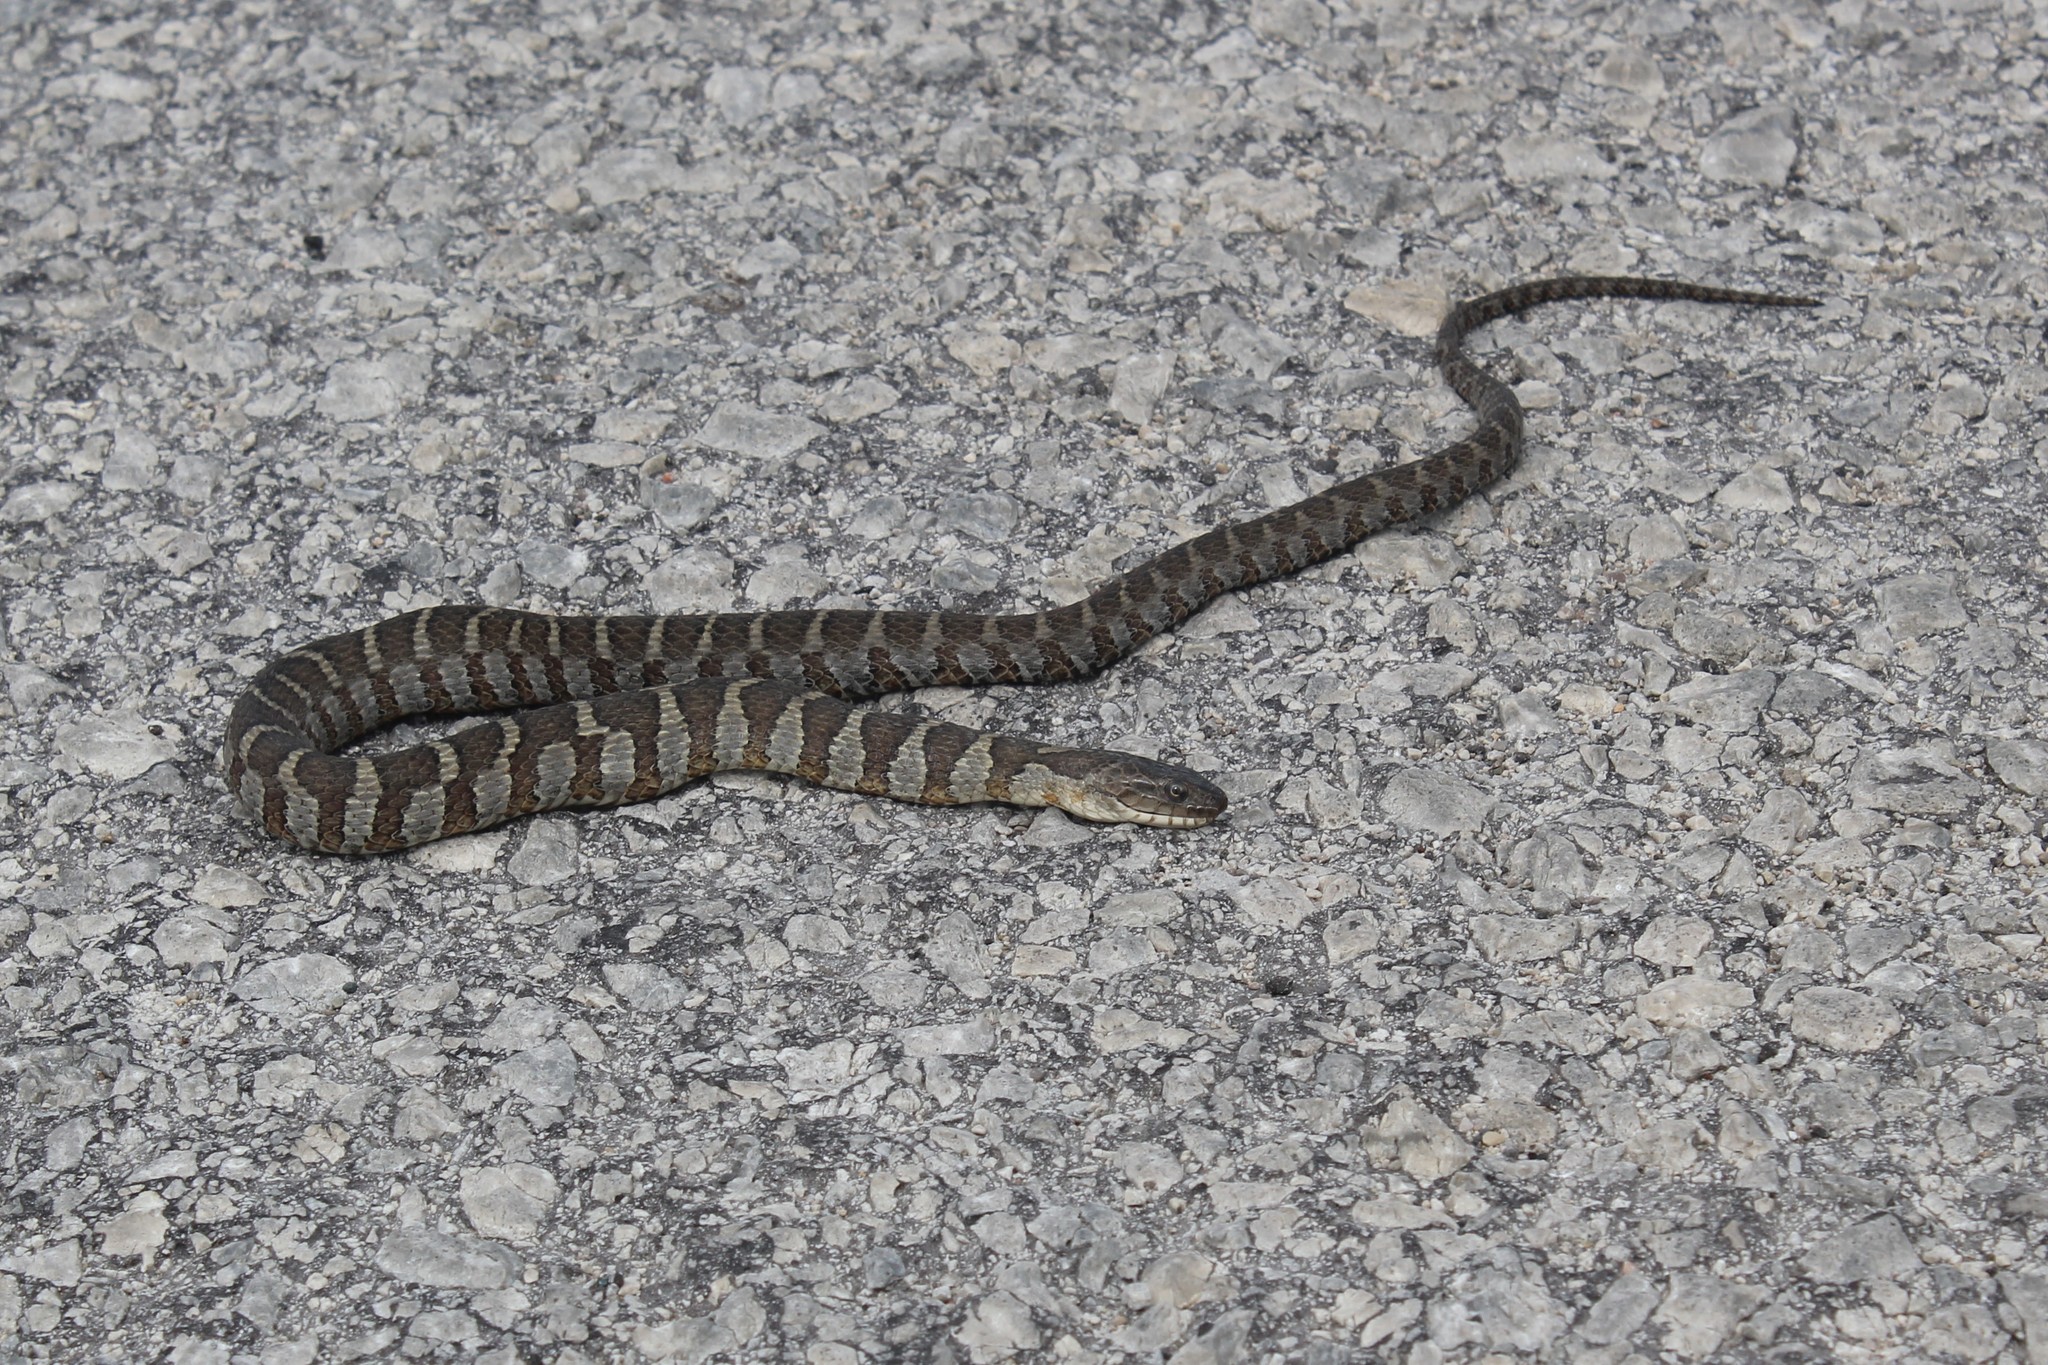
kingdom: Animalia
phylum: Chordata
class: Squamata
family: Colubridae
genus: Nerodia
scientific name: Nerodia sipedon
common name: Northern water snake
